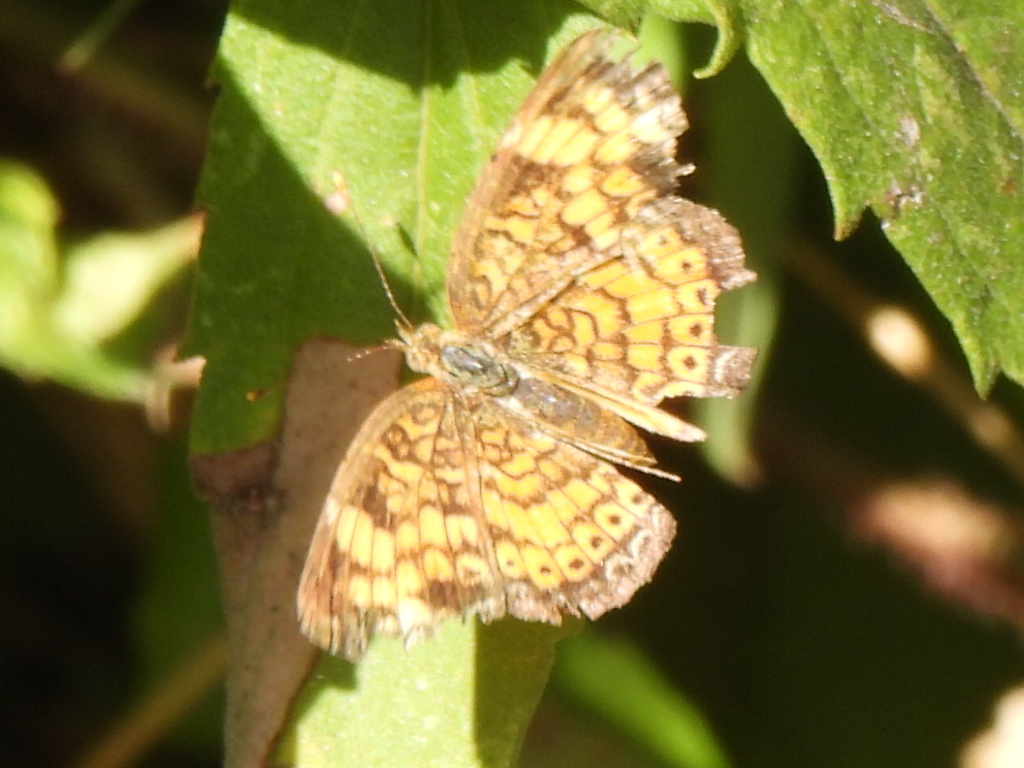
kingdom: Animalia
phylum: Arthropoda
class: Insecta
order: Lepidoptera
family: Nymphalidae
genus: Phyciodes
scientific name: Phyciodes tharos
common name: Pearl crescent
